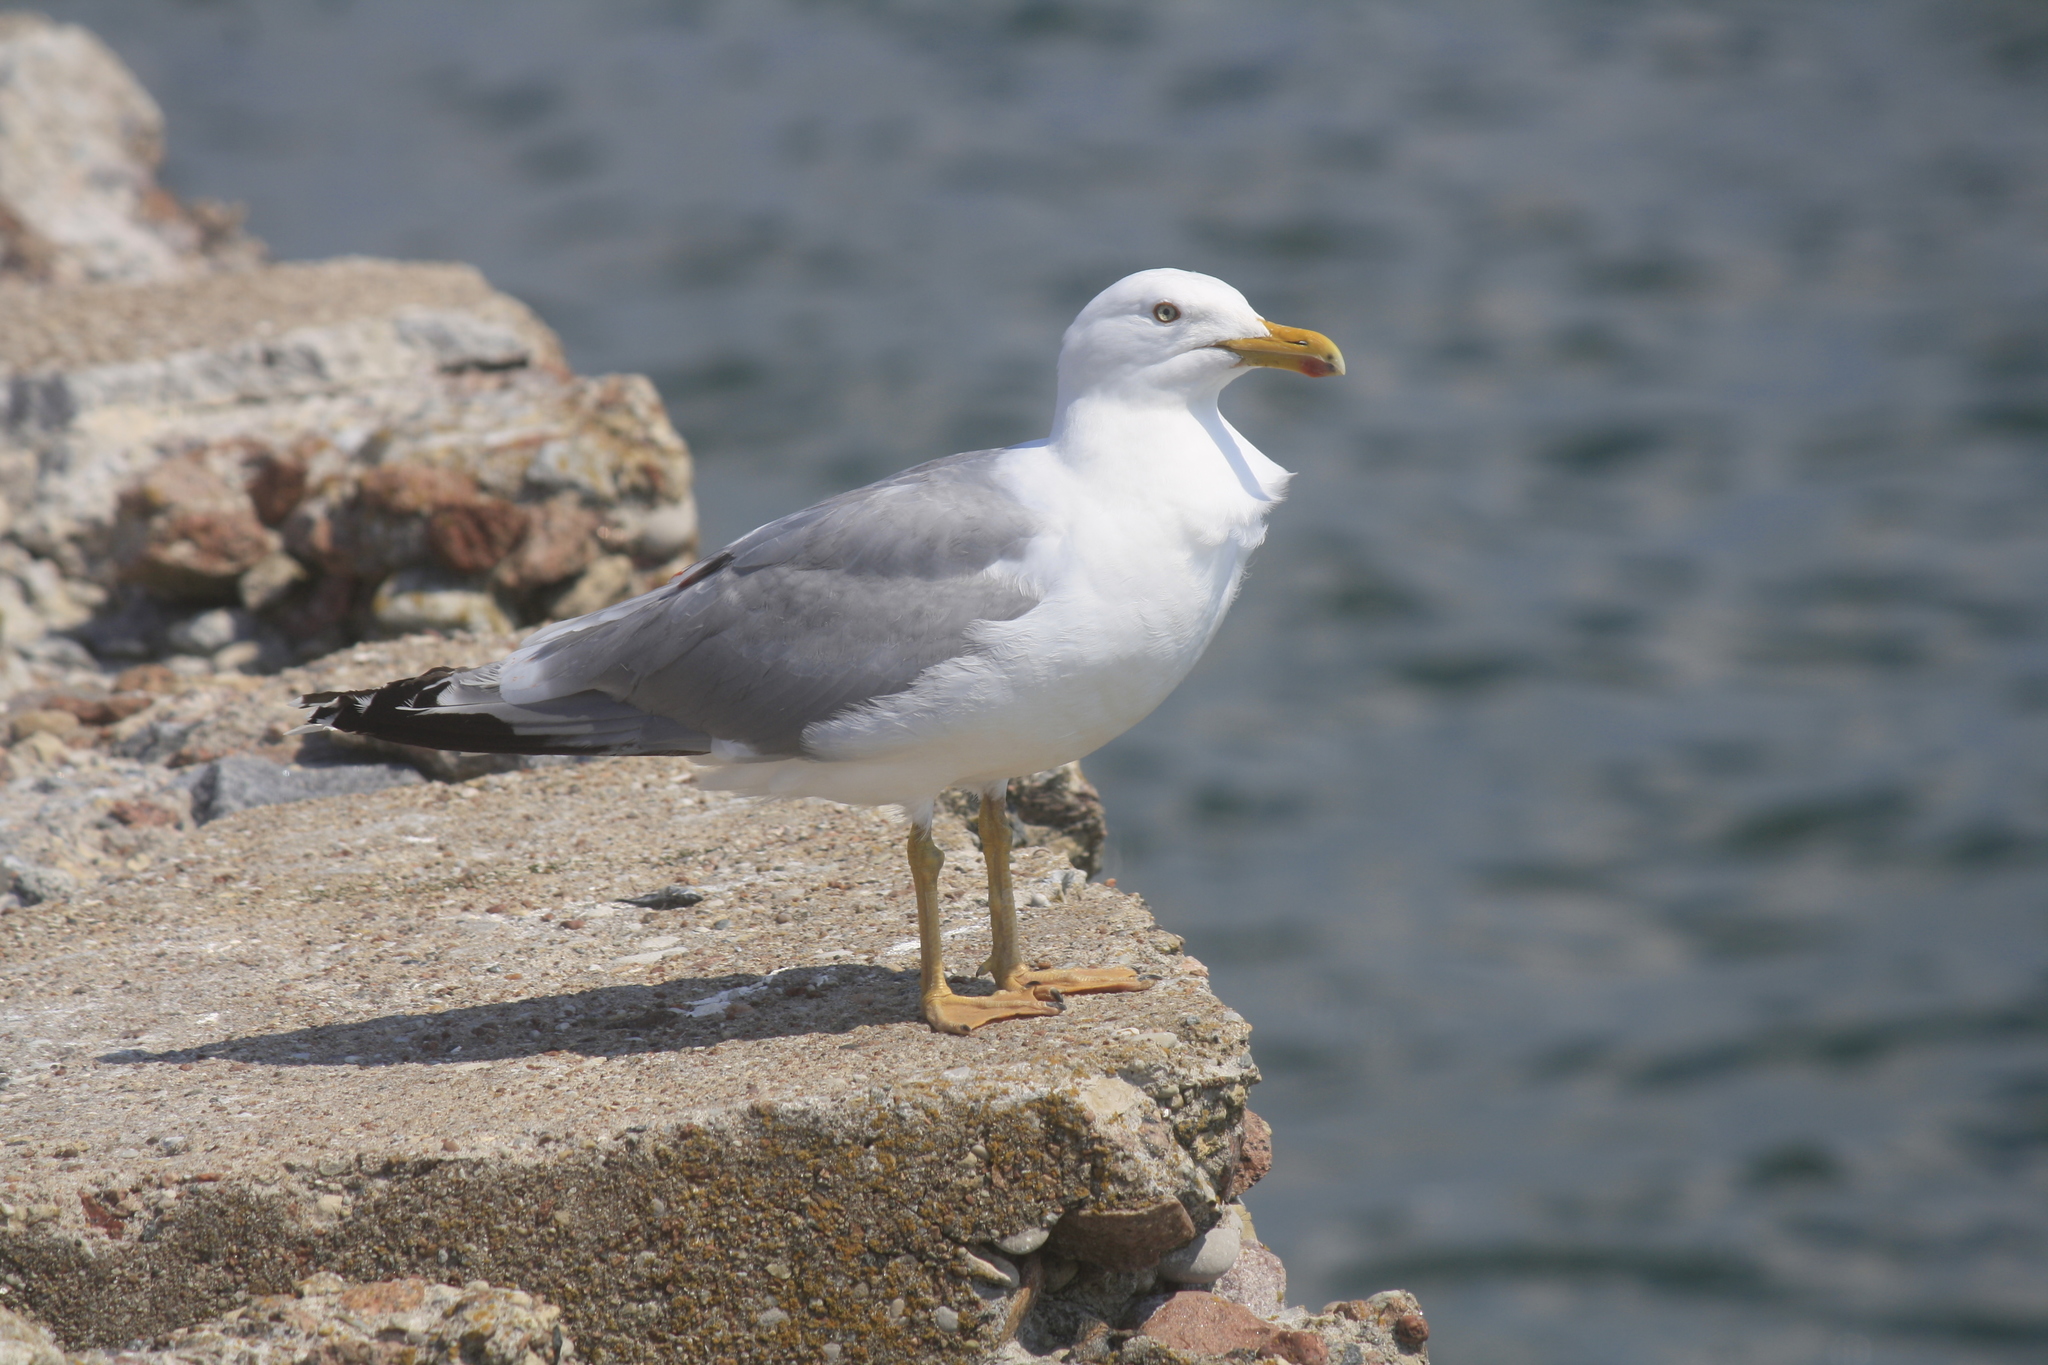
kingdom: Animalia
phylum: Chordata
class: Aves
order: Charadriiformes
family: Laridae
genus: Larus
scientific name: Larus argentatus
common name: Herring gull
